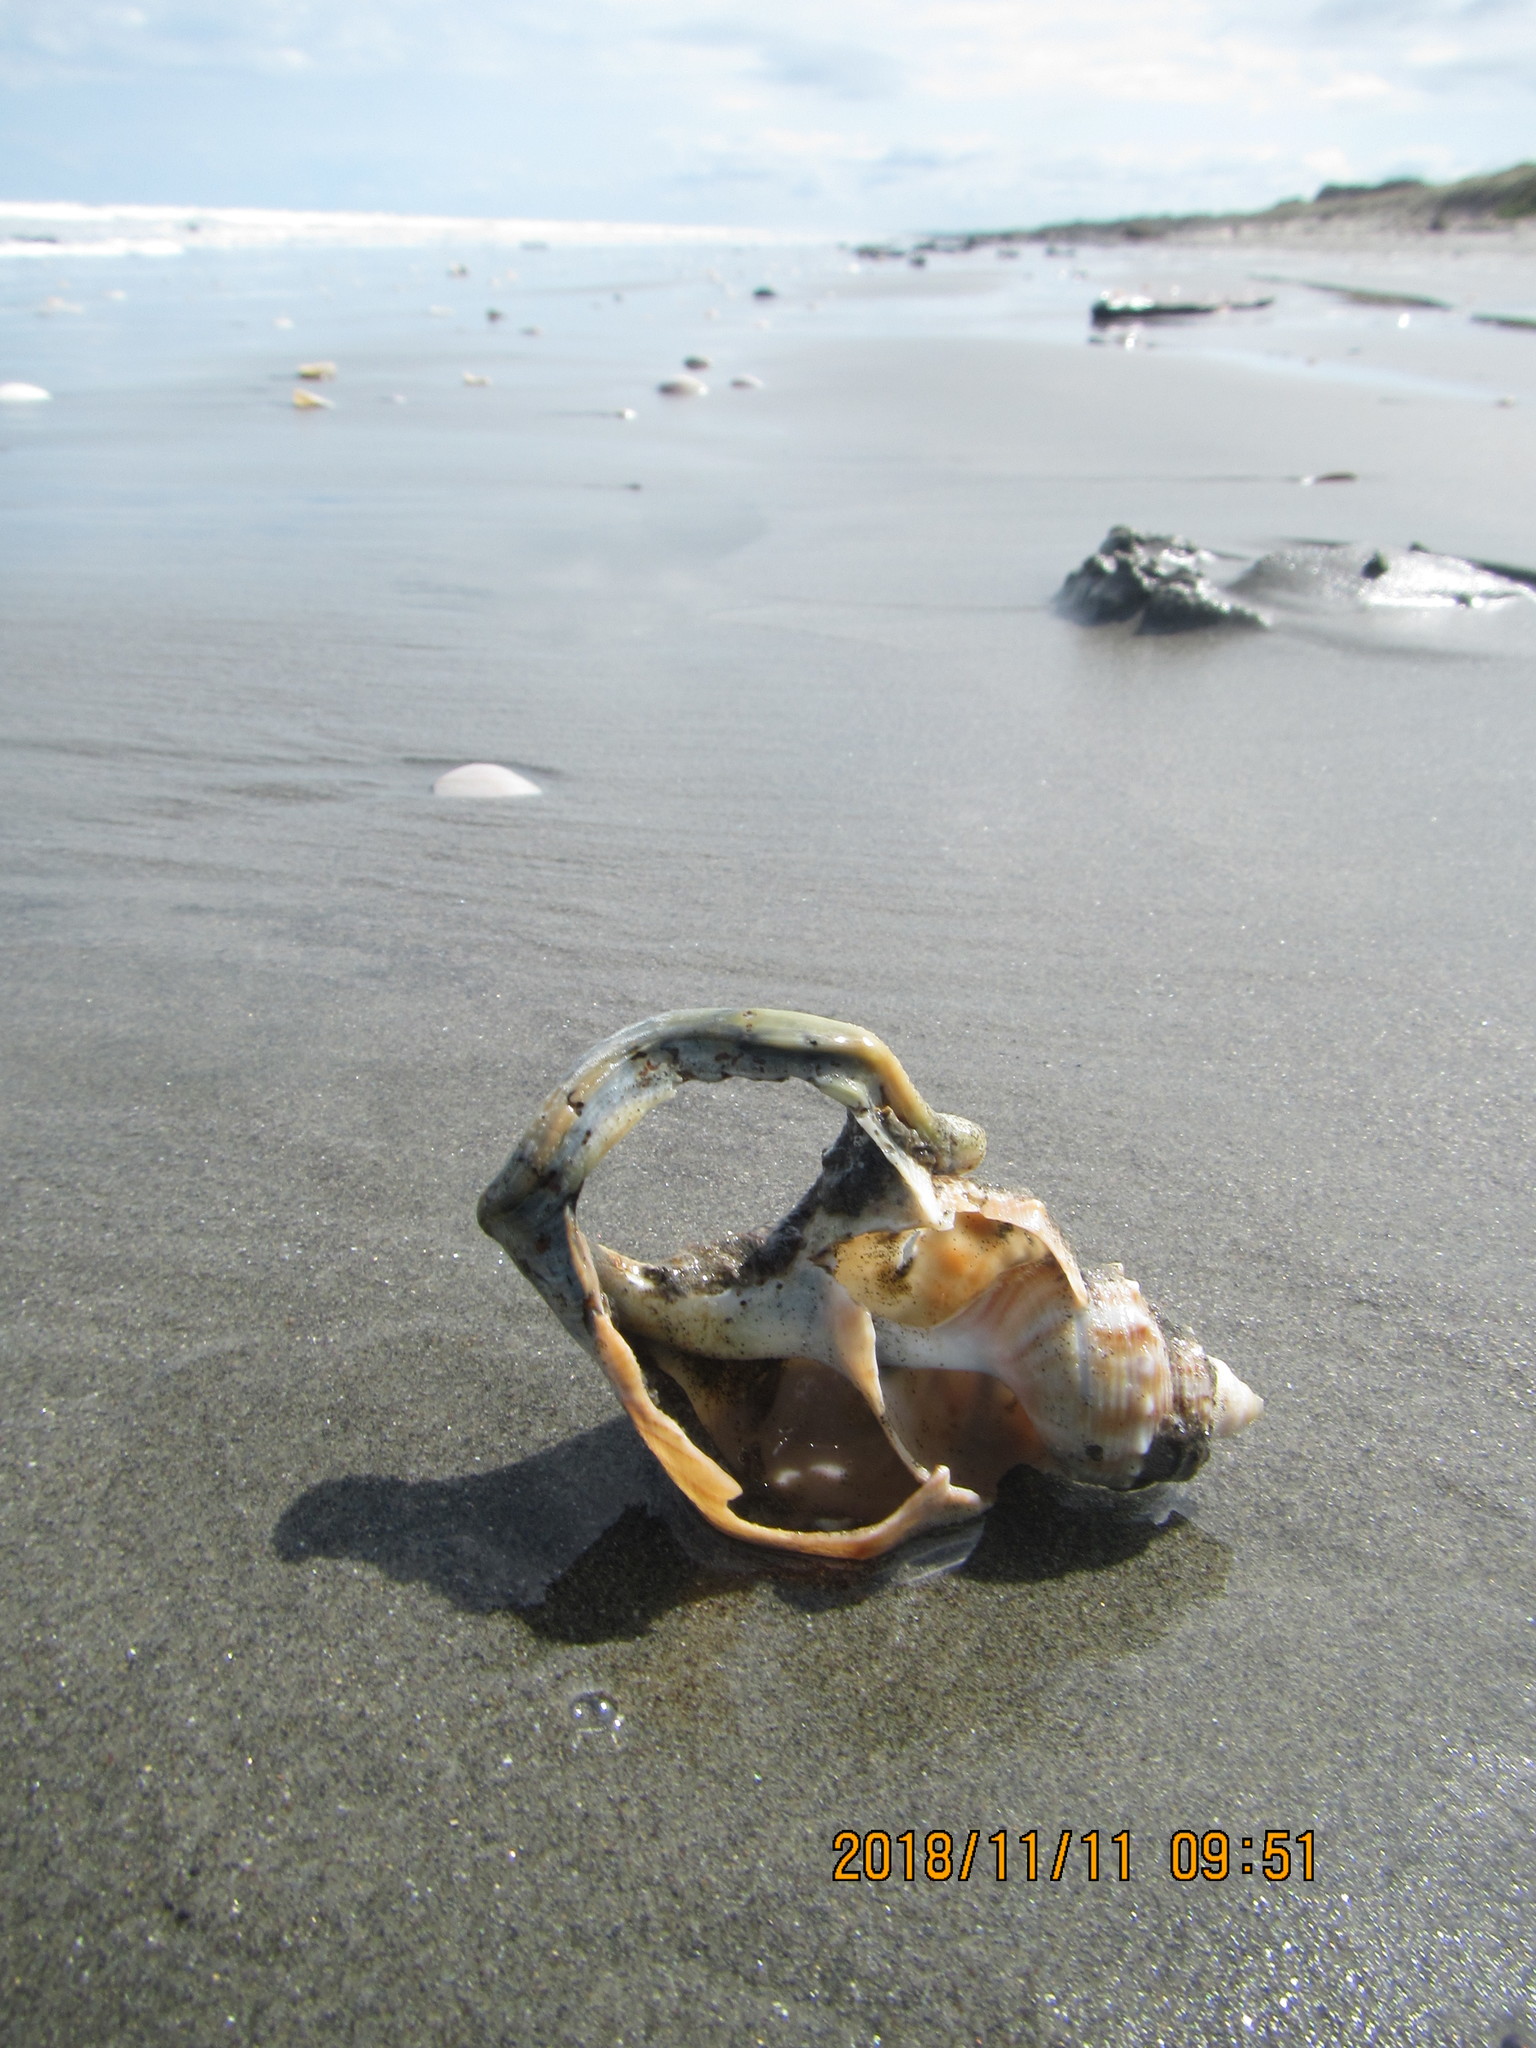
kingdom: Animalia
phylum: Mollusca
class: Gastropoda
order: Littorinimorpha
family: Struthiolariidae
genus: Struthiolaria
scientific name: Struthiolaria papulosa
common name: Large ostrich foot
